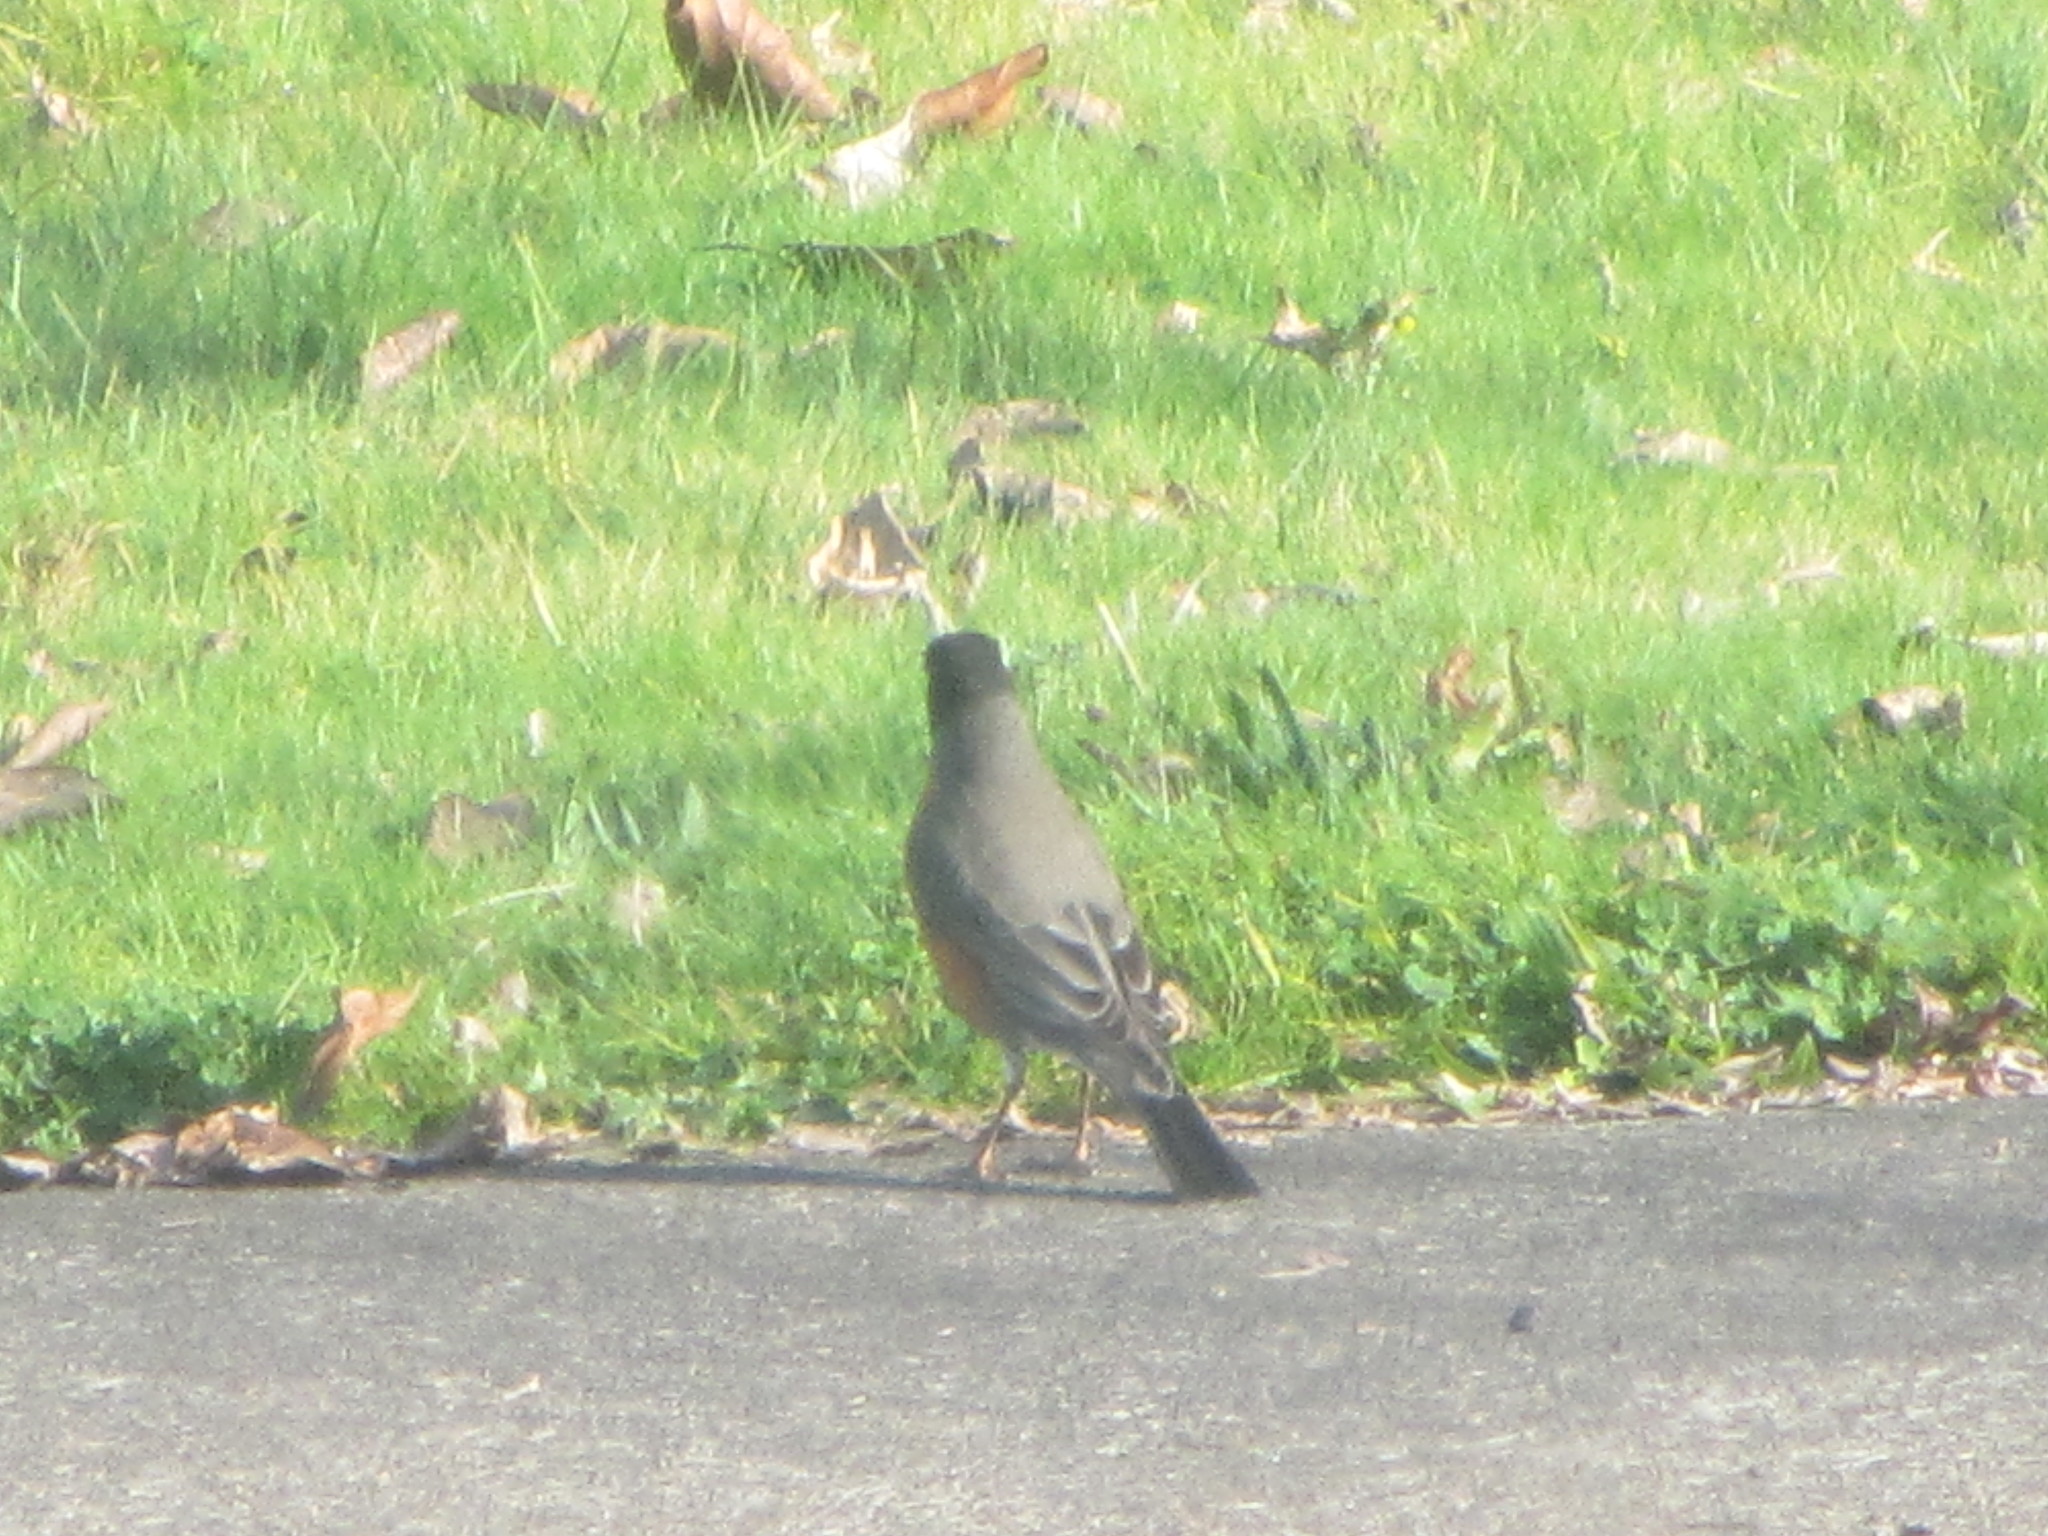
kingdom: Animalia
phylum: Chordata
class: Aves
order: Passeriformes
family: Turdidae
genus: Turdus
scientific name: Turdus migratorius
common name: American robin
